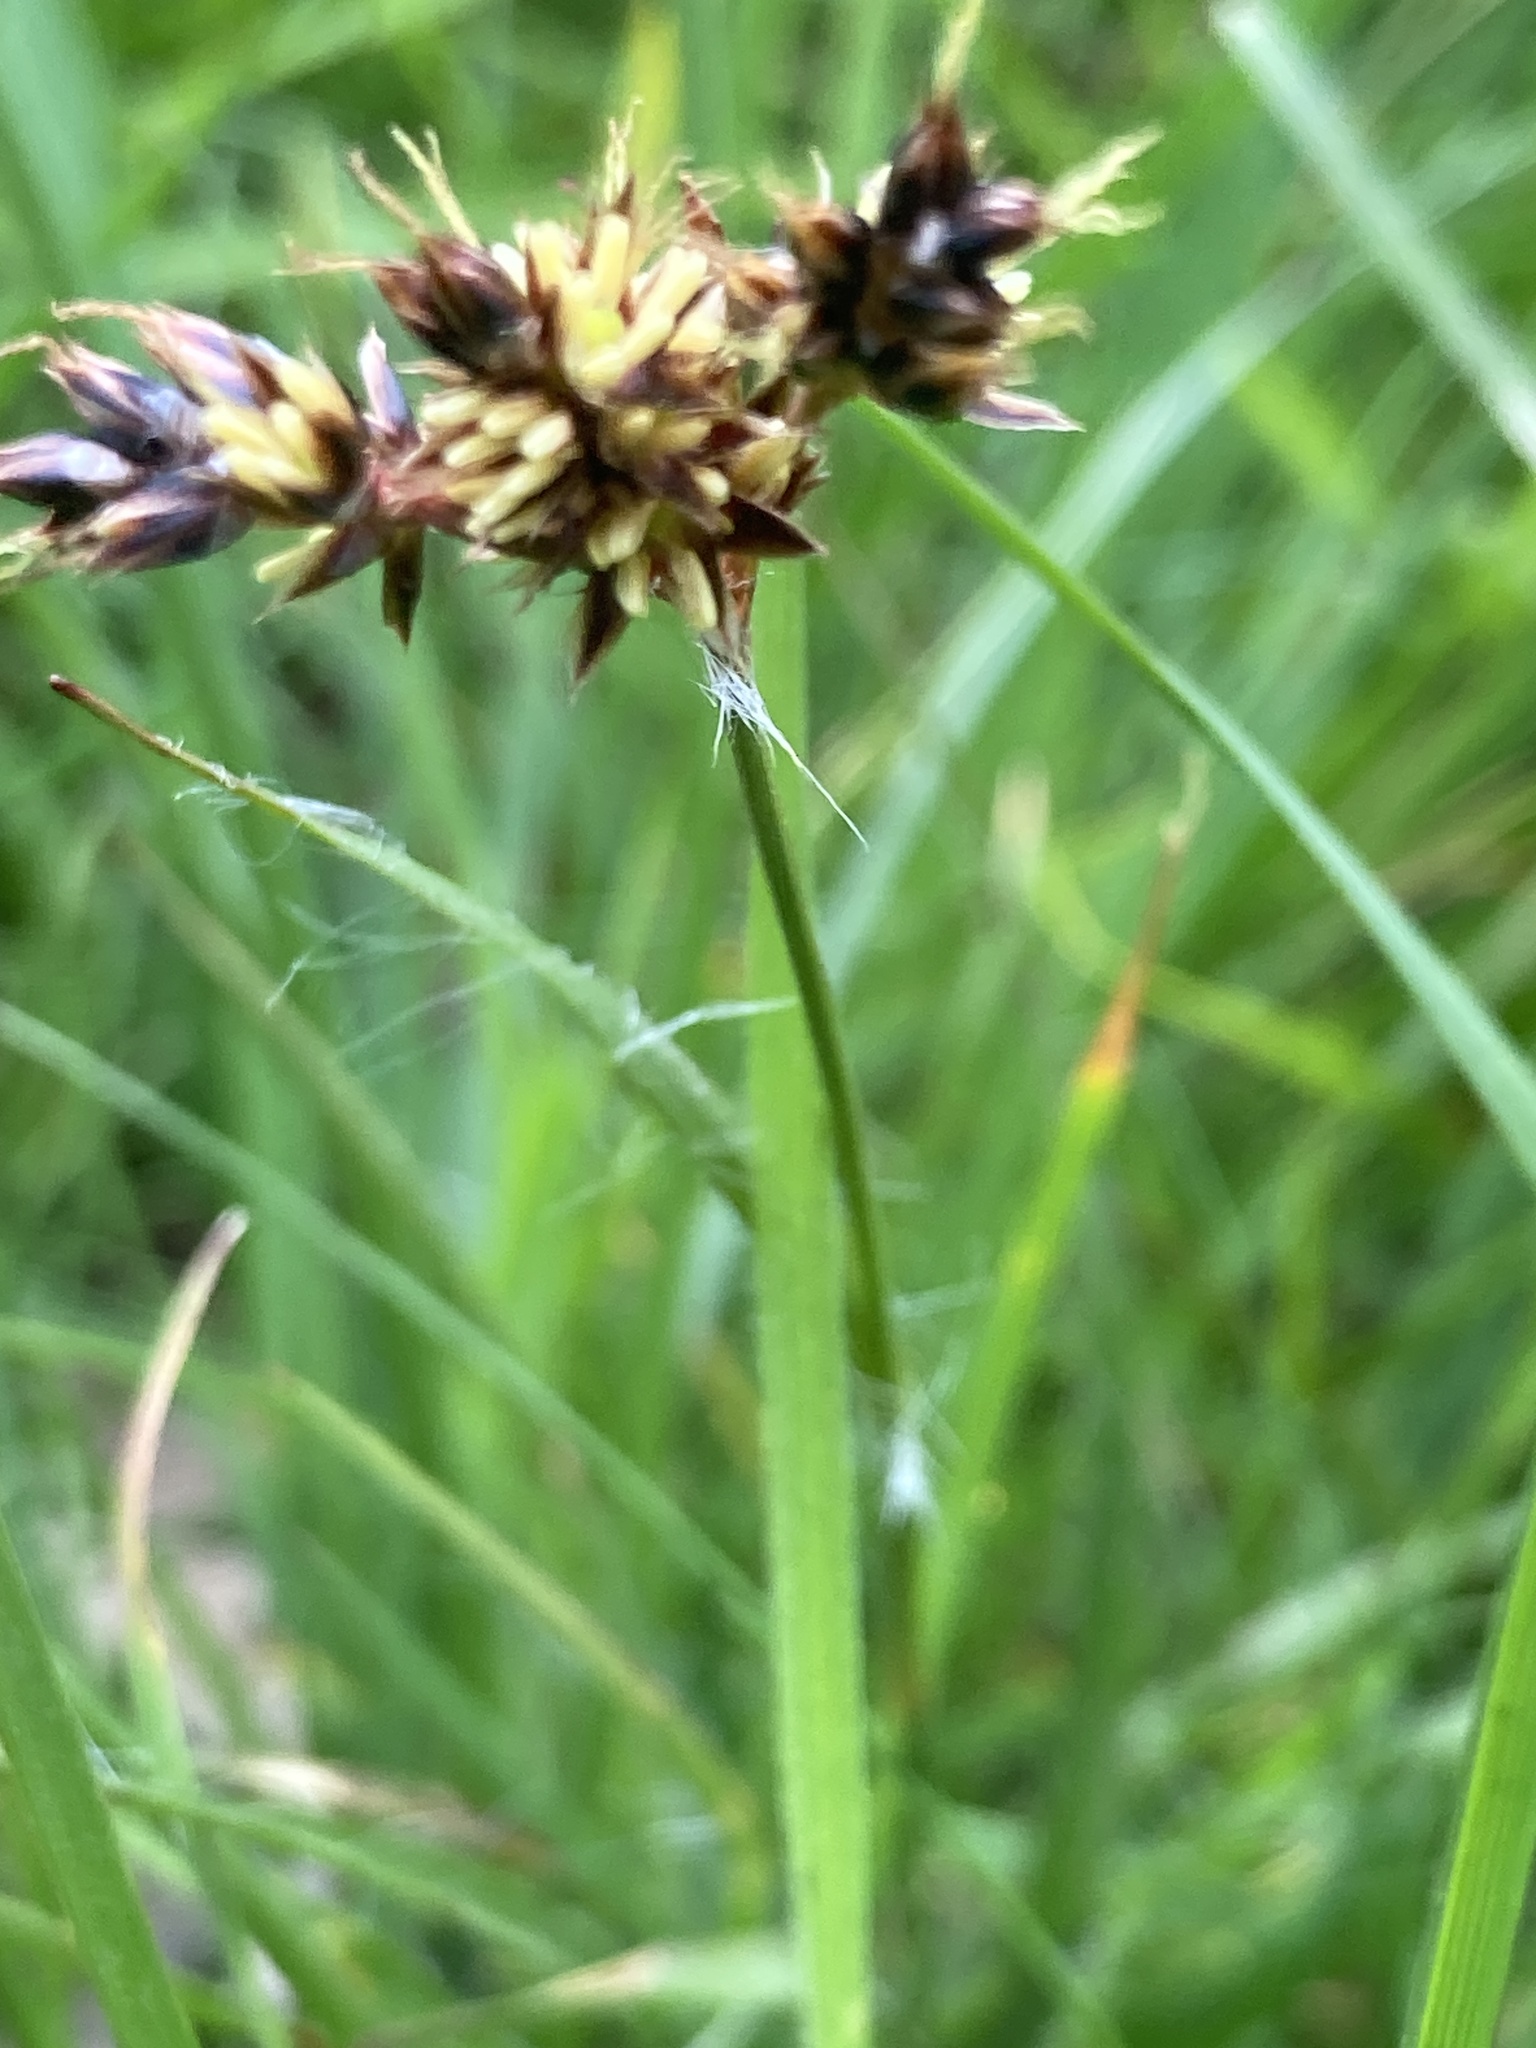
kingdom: Plantae
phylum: Tracheophyta
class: Liliopsida
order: Poales
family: Juncaceae
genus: Luzula
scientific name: Luzula campestris
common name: Field wood-rush
